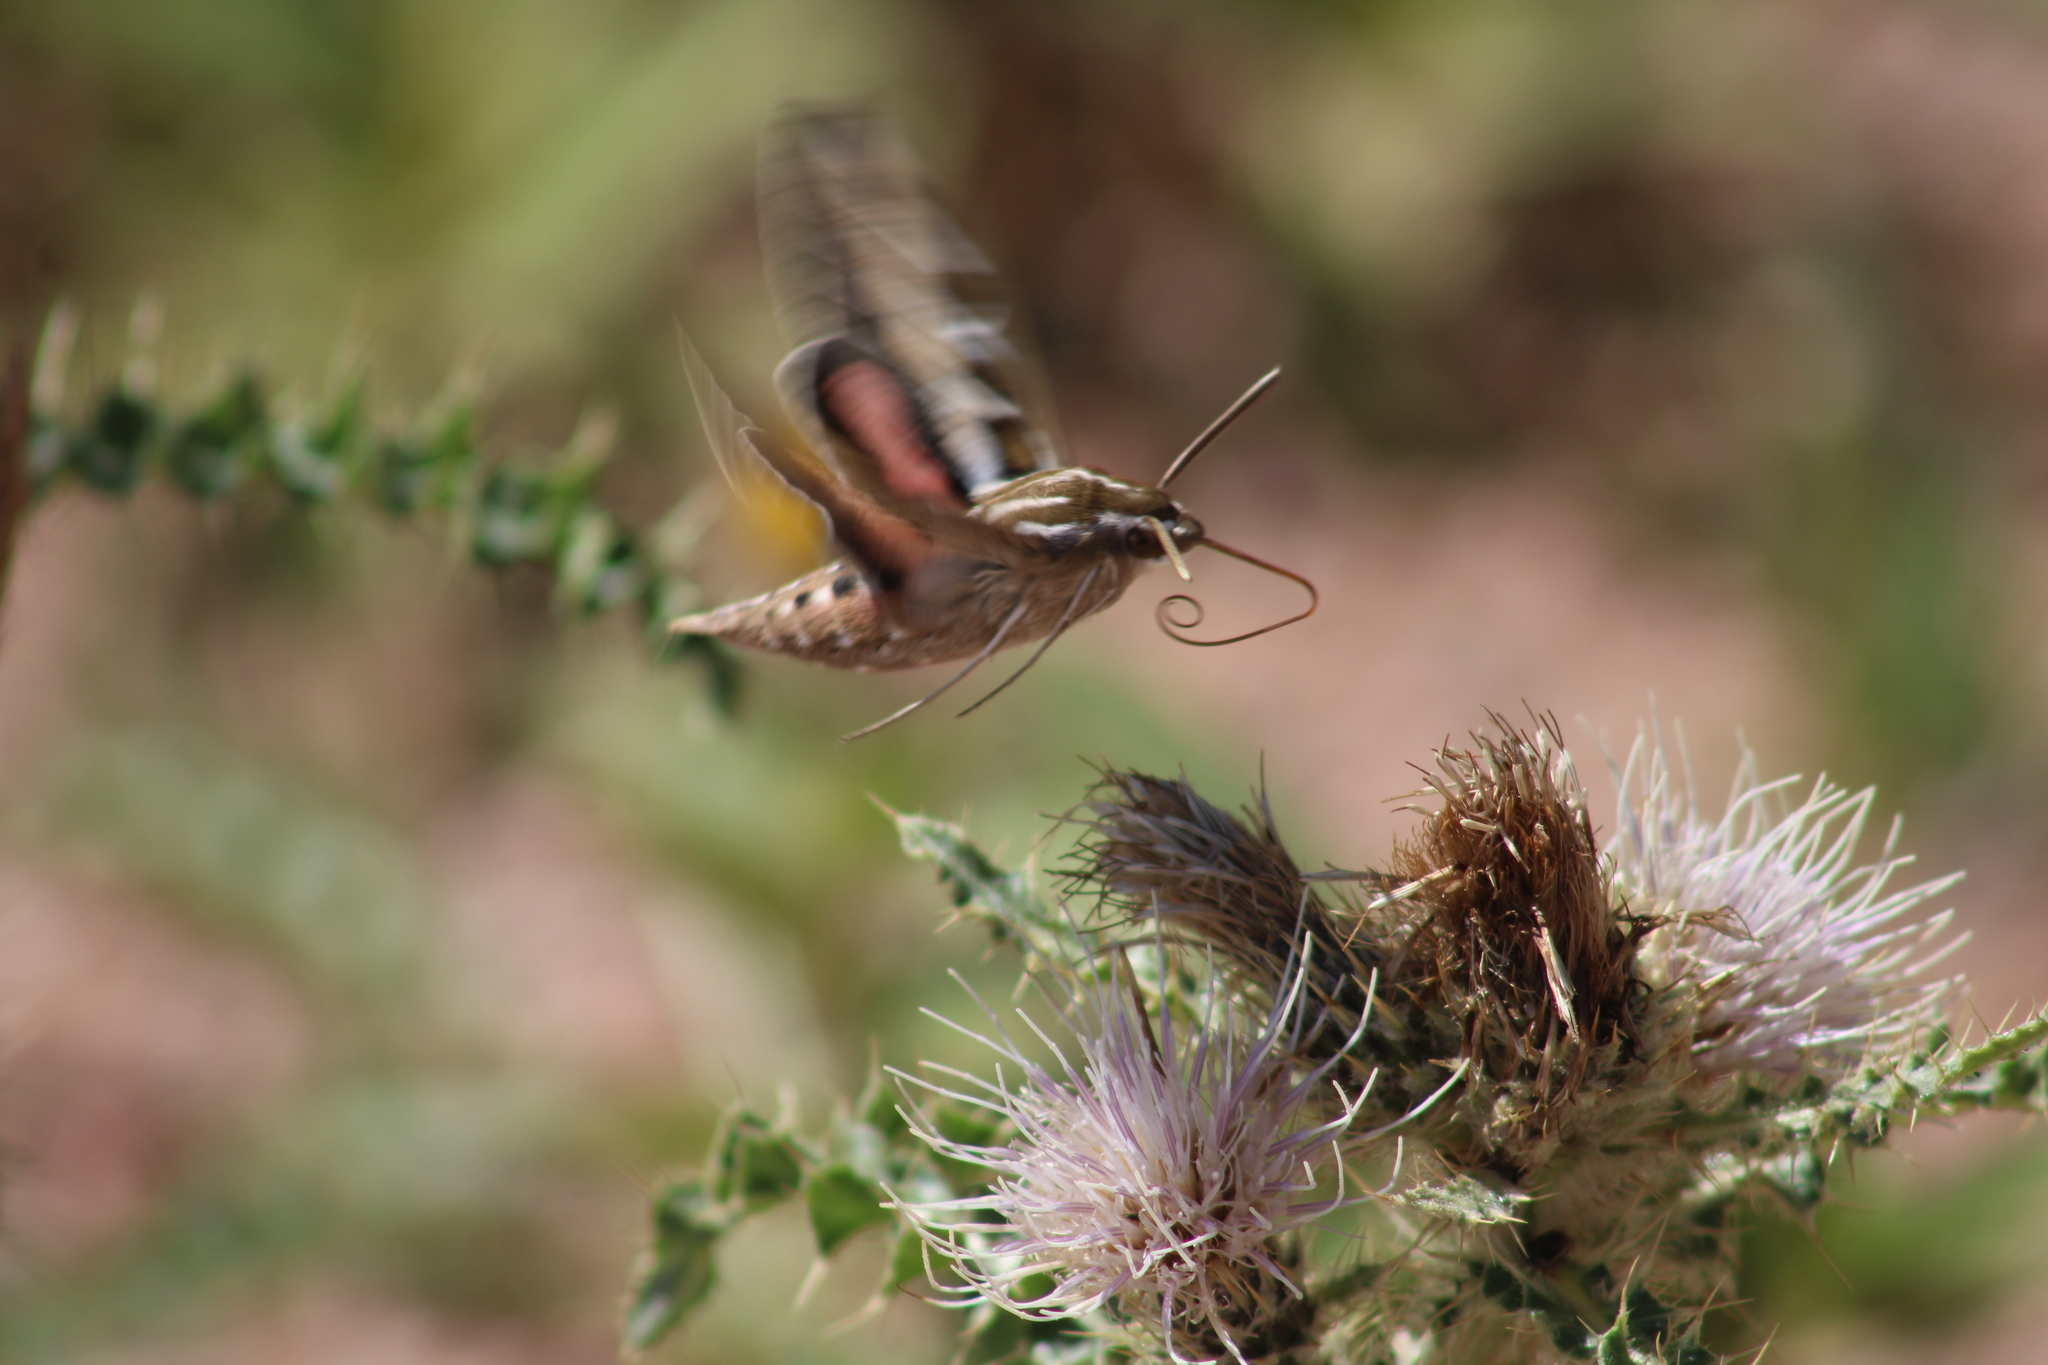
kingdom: Animalia
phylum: Arthropoda
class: Insecta
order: Lepidoptera
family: Sphingidae
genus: Hyles
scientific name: Hyles lineata
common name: White-lined sphinx
